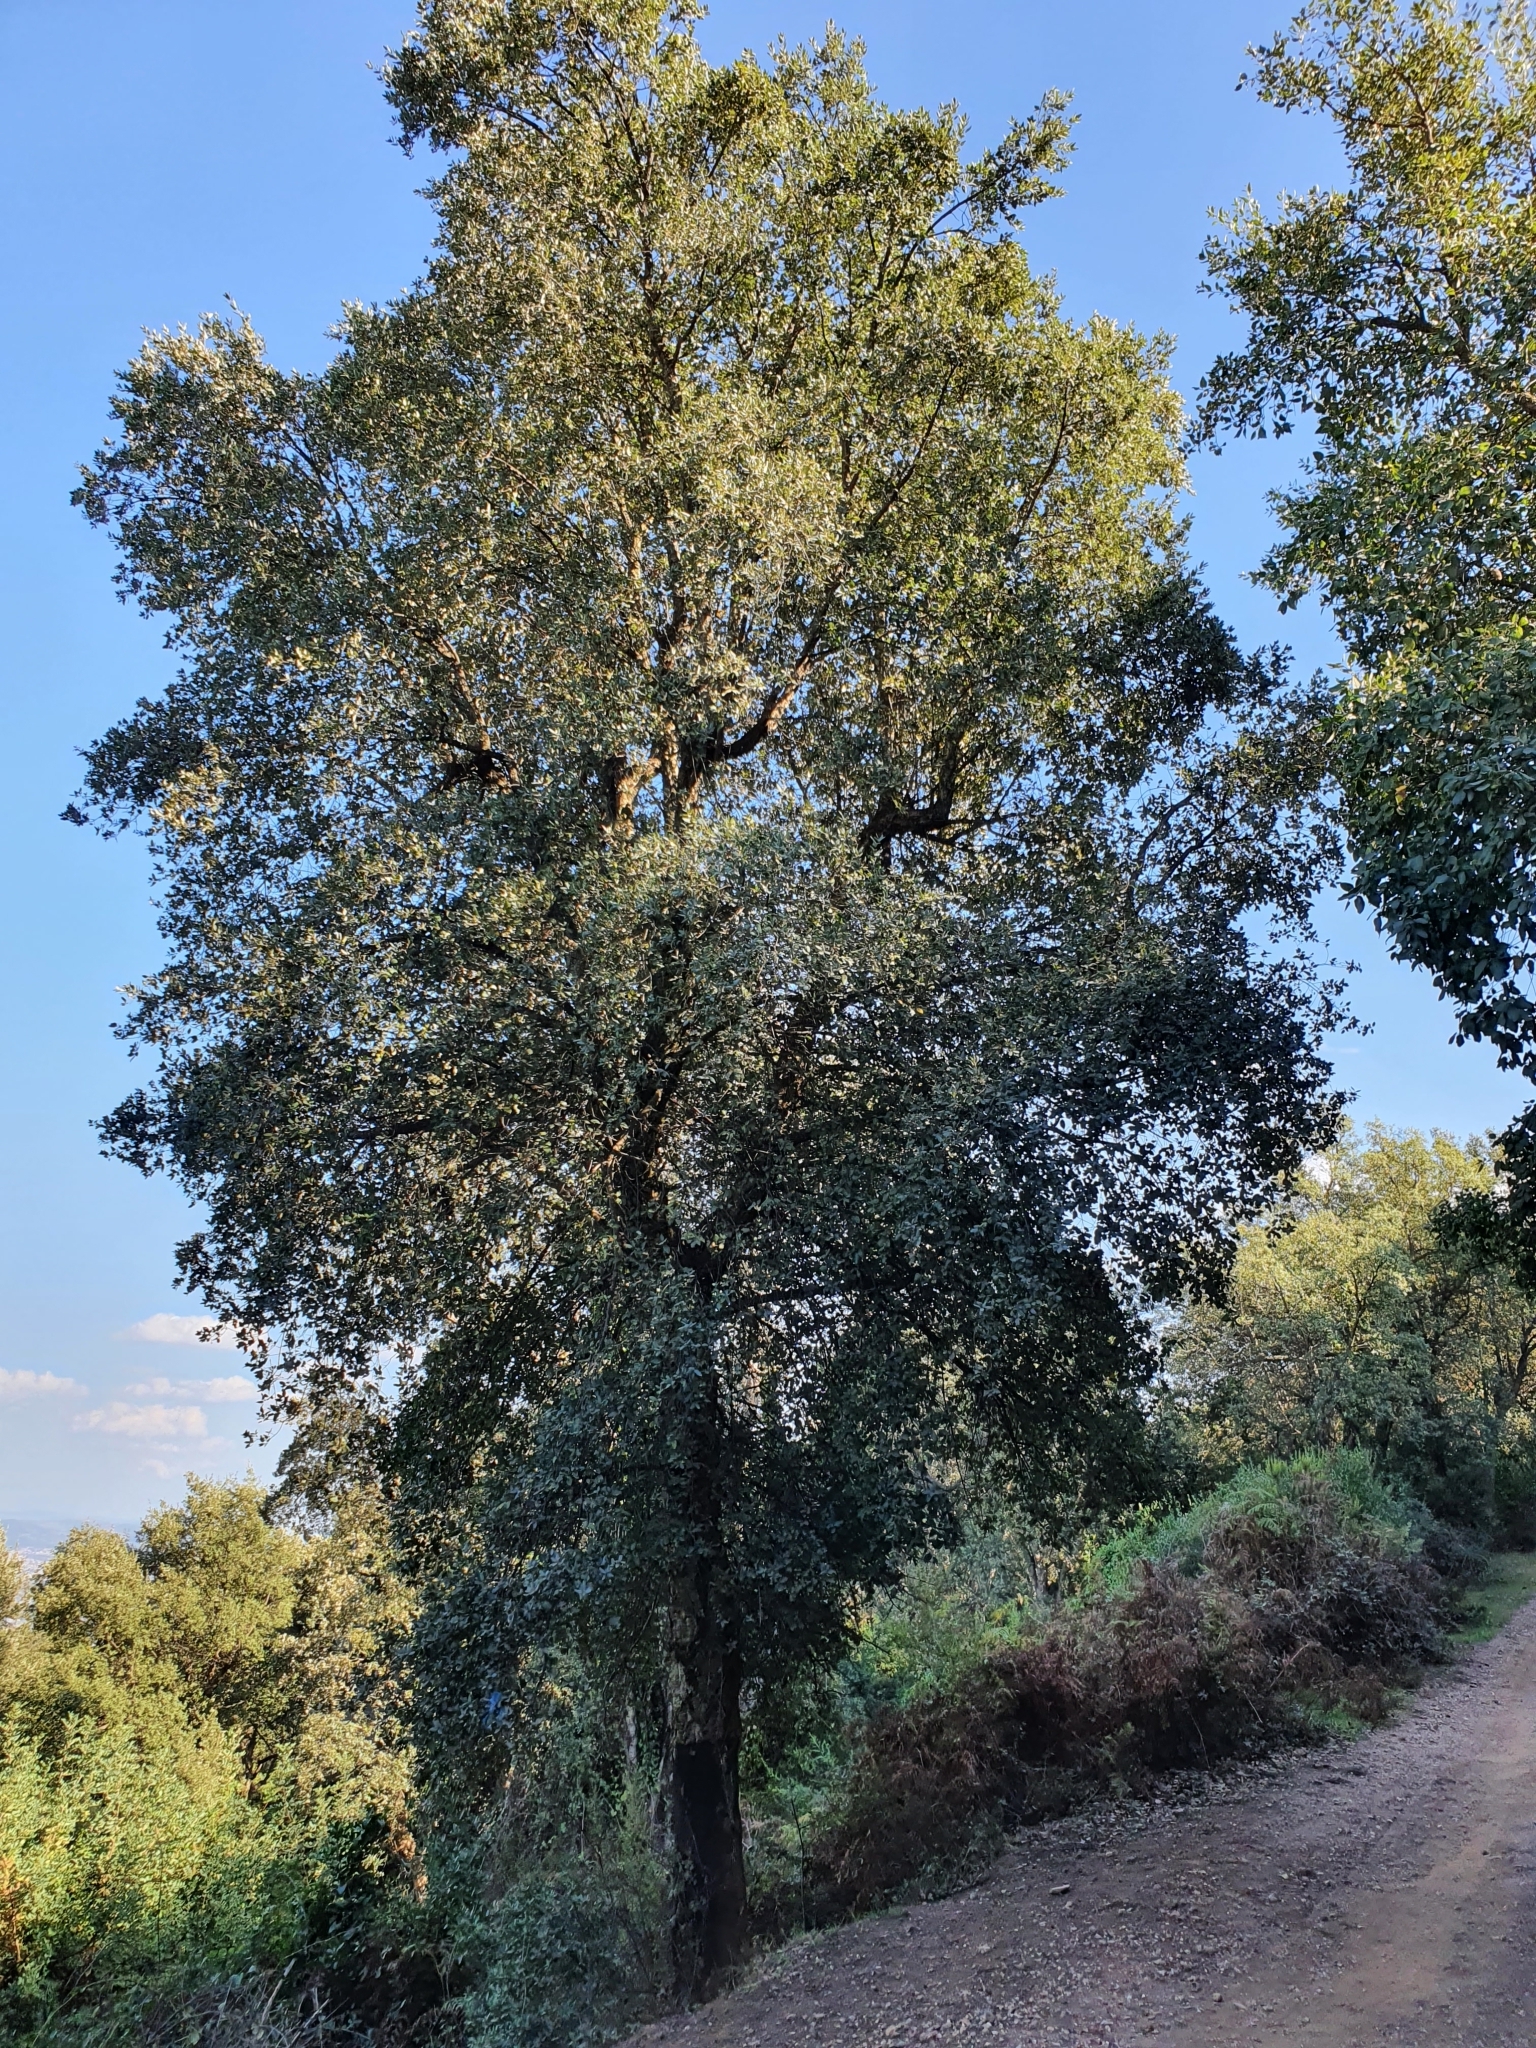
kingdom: Plantae
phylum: Tracheophyta
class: Magnoliopsida
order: Fagales
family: Fagaceae
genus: Quercus
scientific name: Quercus suber
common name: Cork oak
